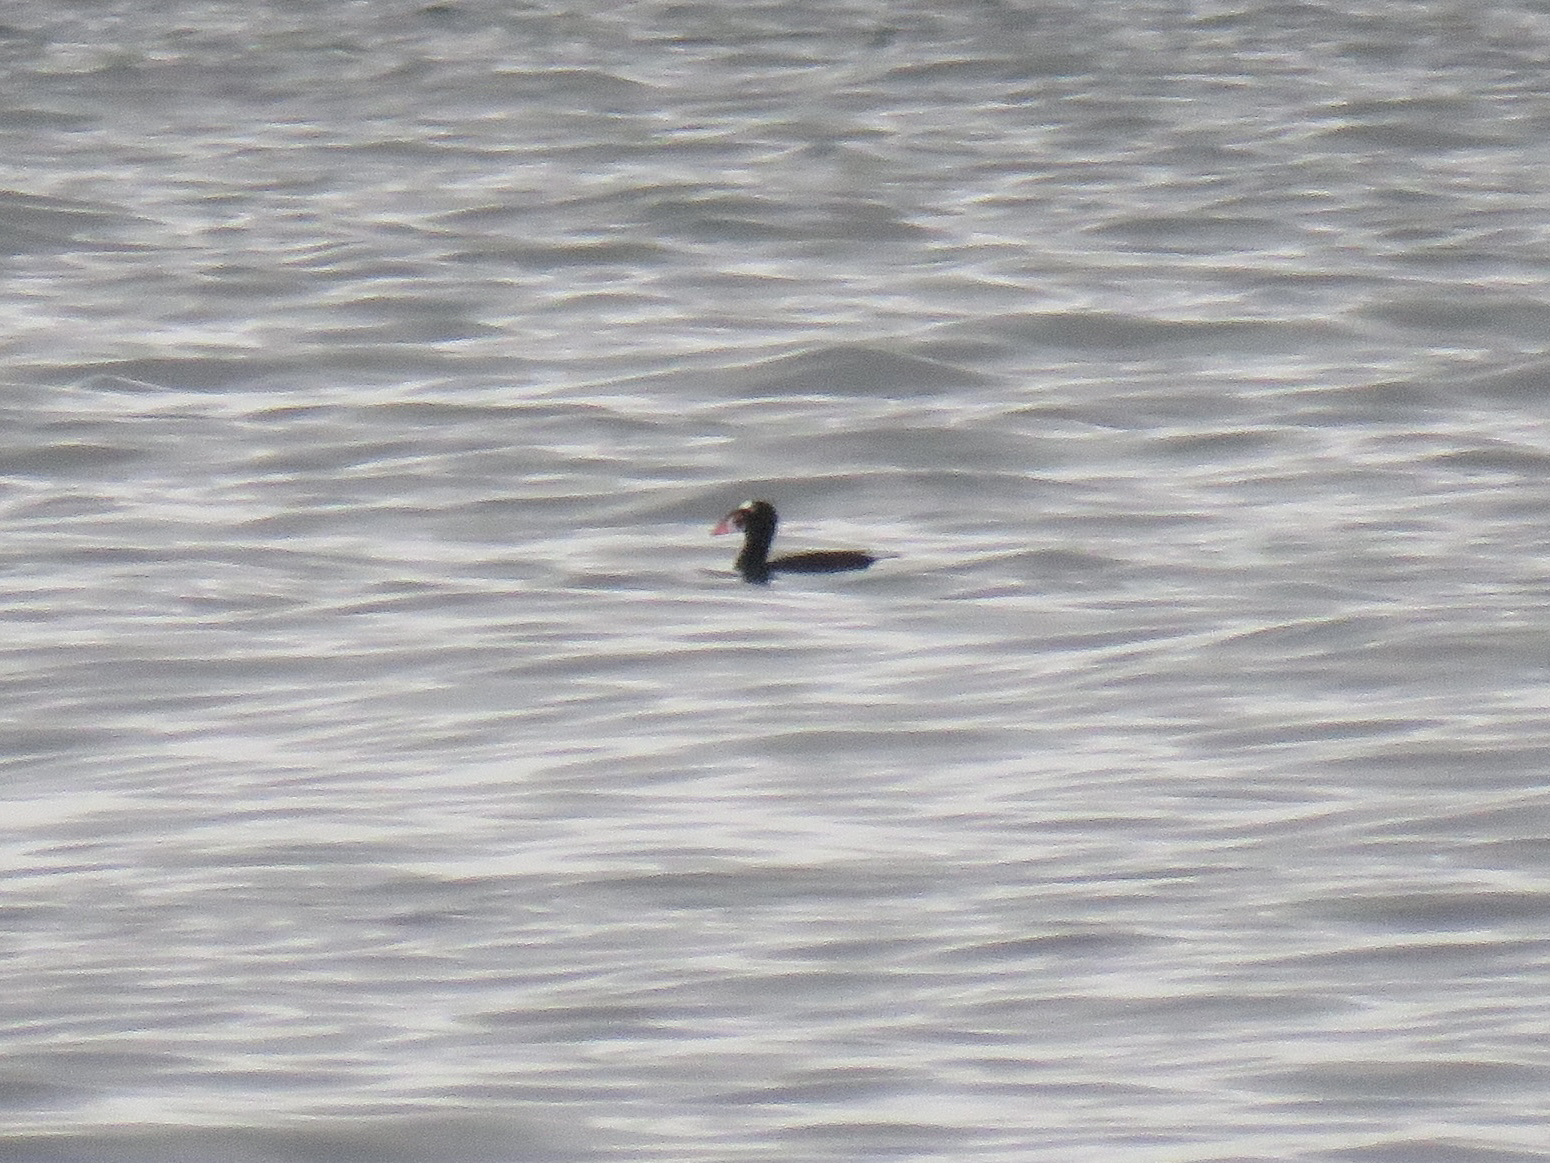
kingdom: Animalia
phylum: Chordata
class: Aves
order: Anseriformes
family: Anatidae
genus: Melanitta
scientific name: Melanitta perspicillata
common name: Surf scoter
